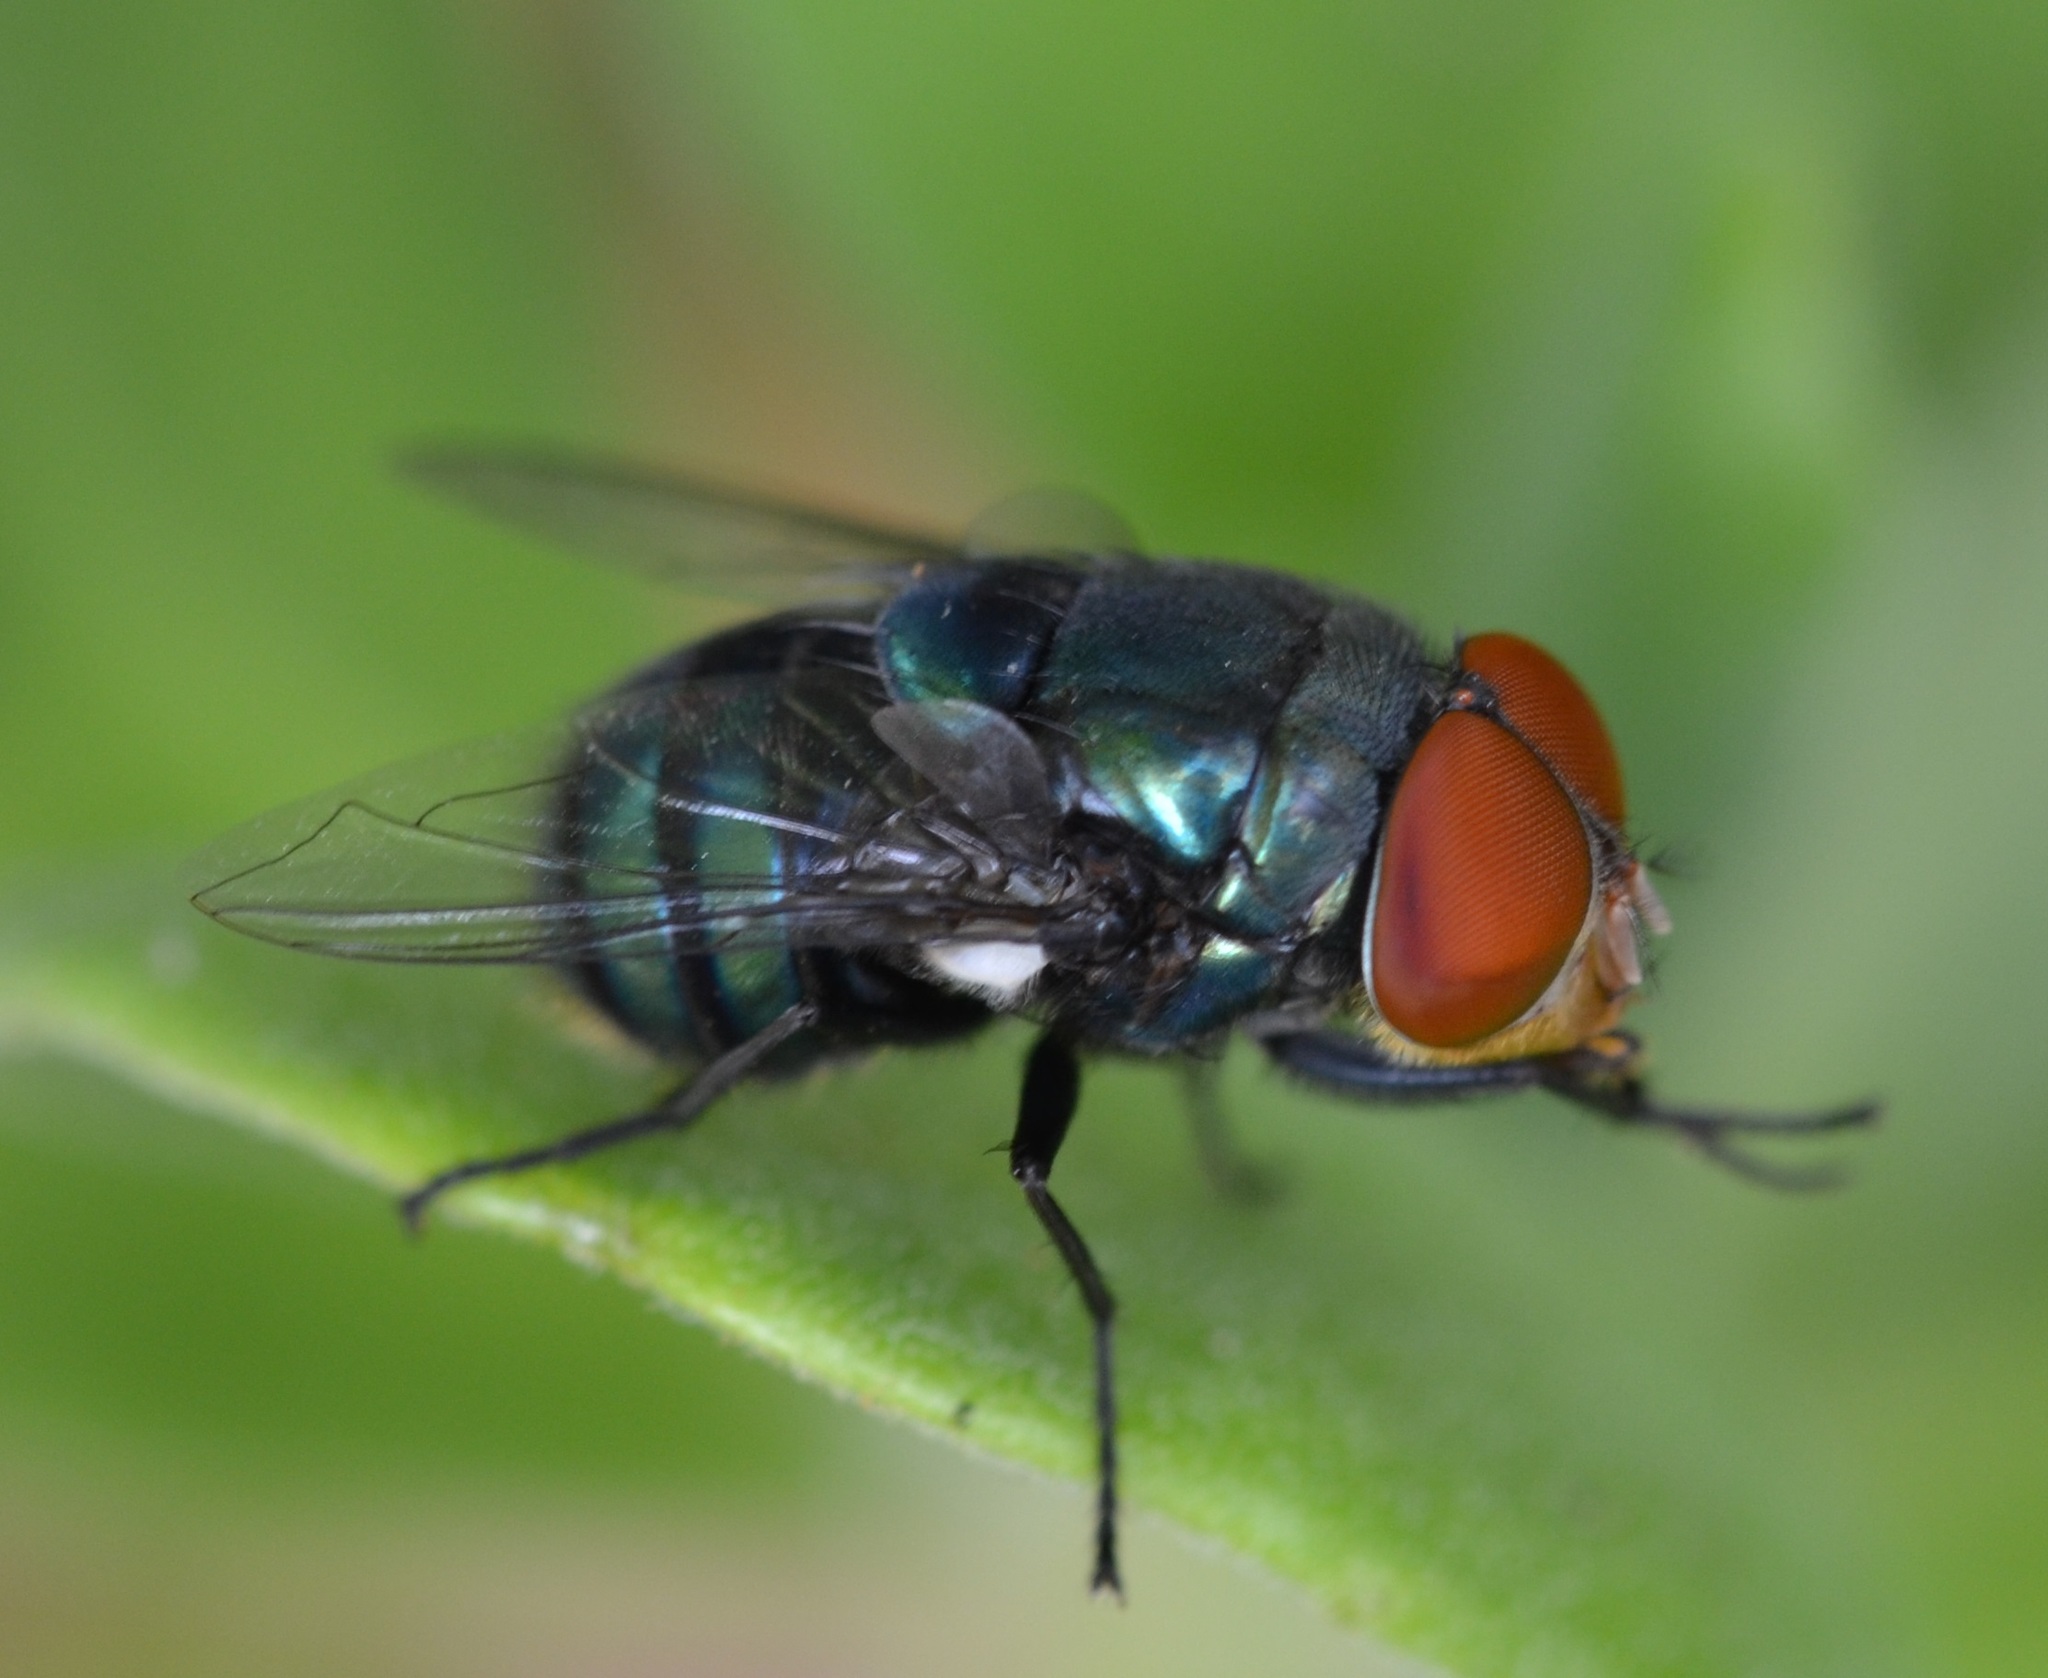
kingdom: Animalia
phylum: Arthropoda
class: Insecta
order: Diptera
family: Calliphoridae
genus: Chrysomya
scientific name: Chrysomya megacephala
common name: Blow fly
